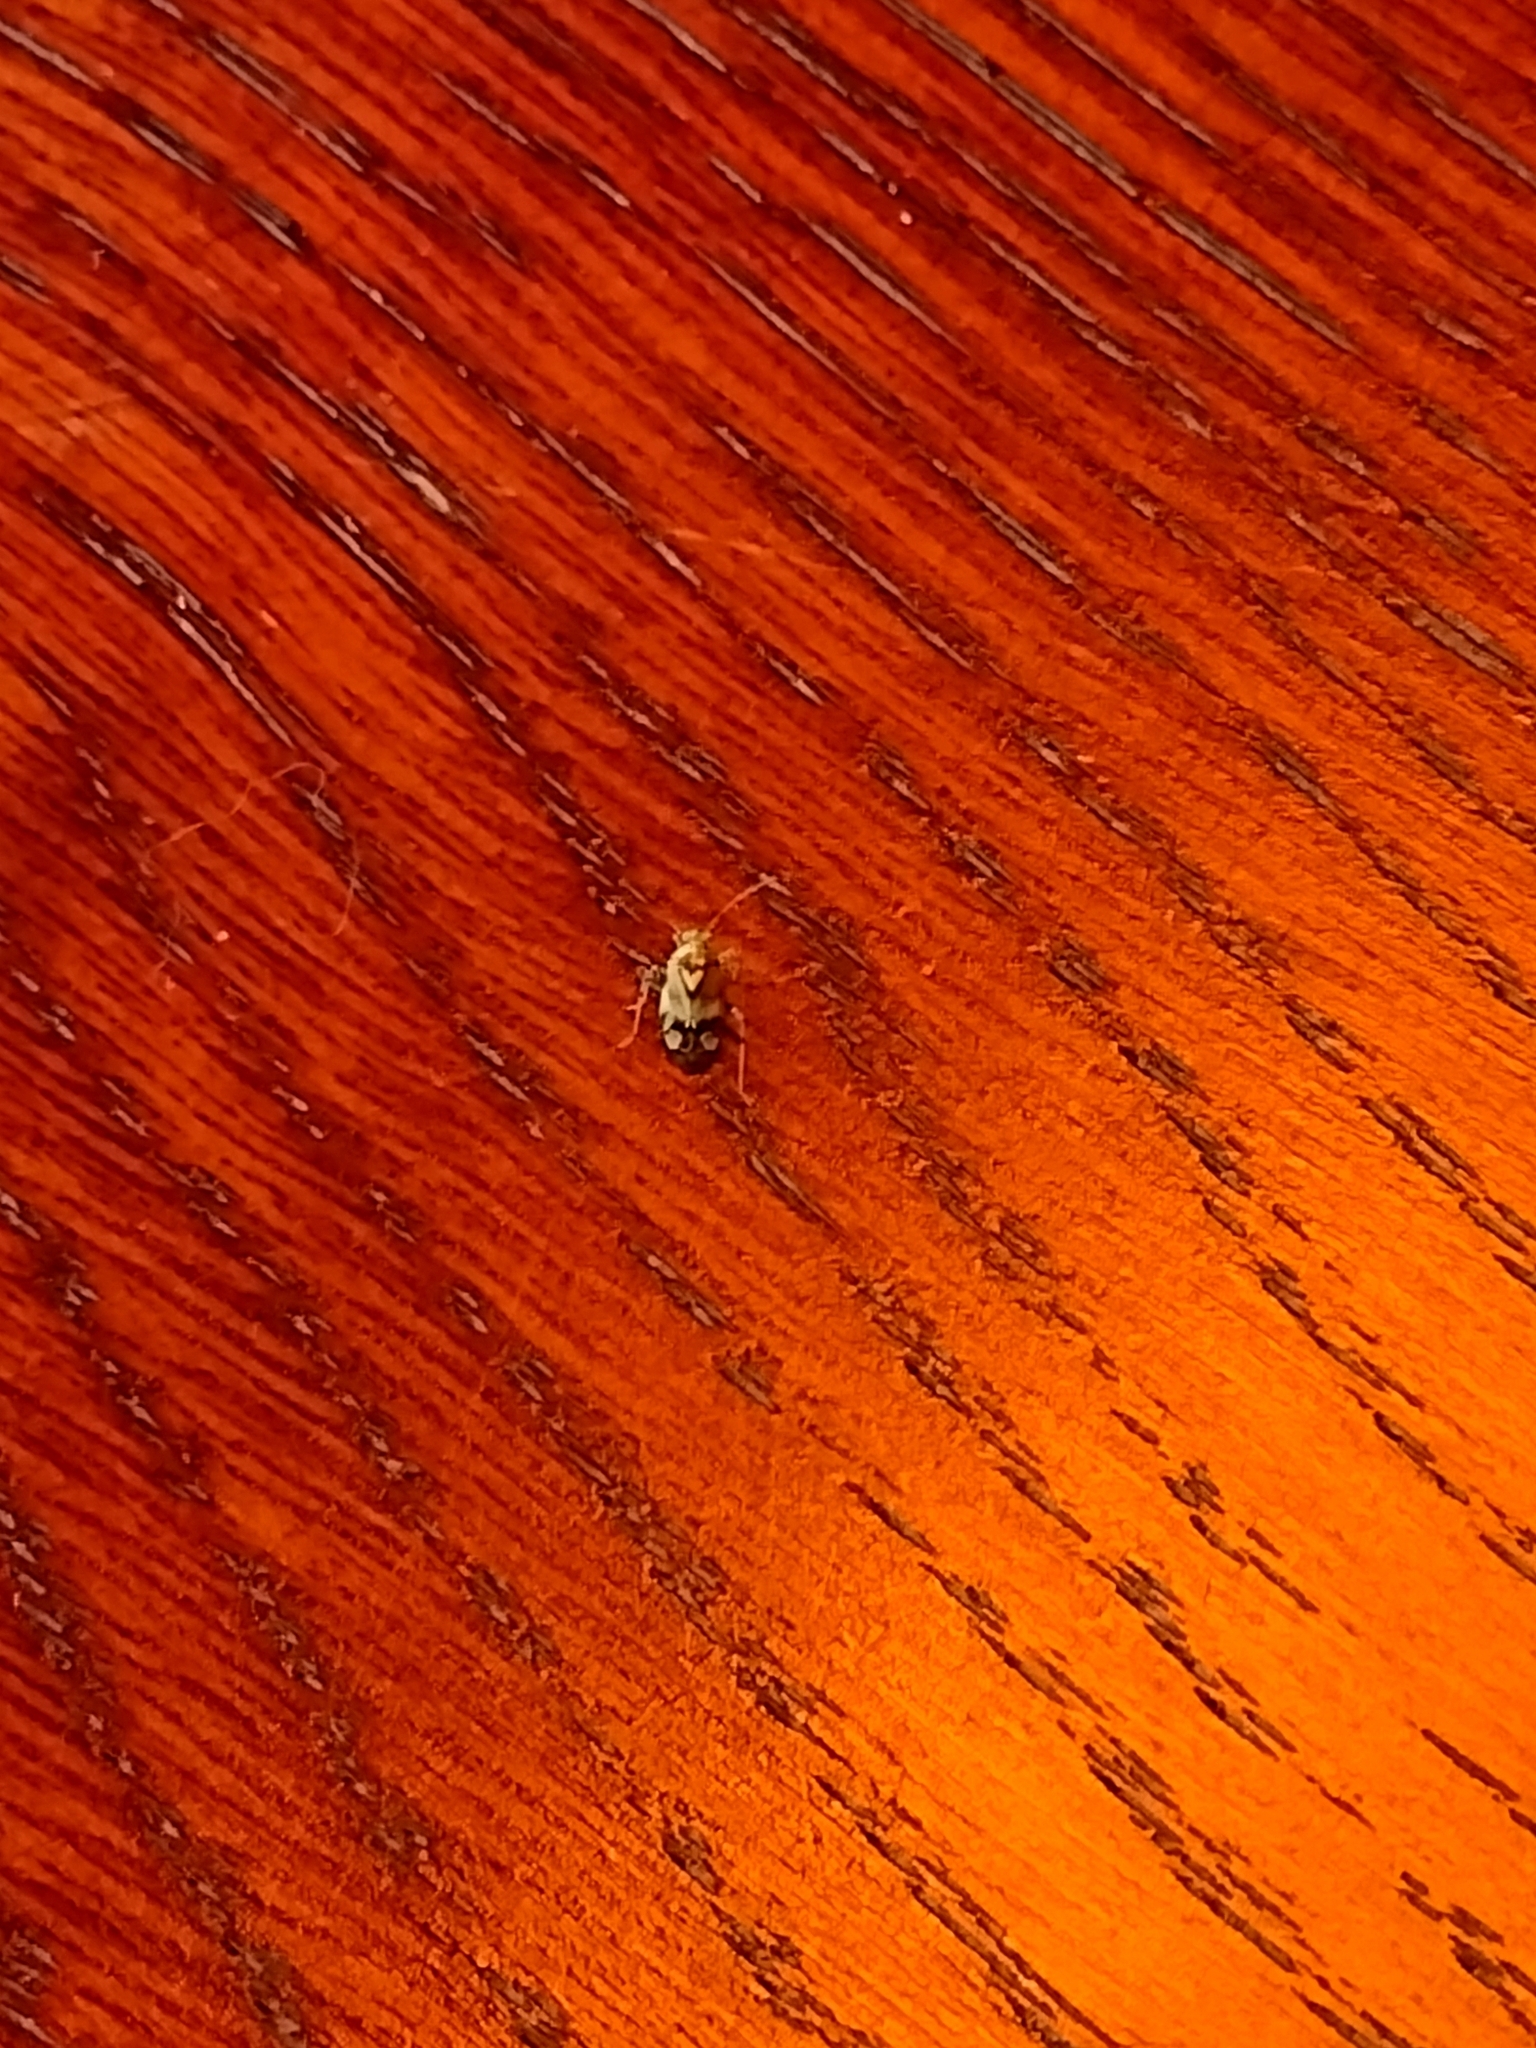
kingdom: Animalia
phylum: Arthropoda
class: Insecta
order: Hemiptera
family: Miridae
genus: Liocoris
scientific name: Liocoris tripustulatus
